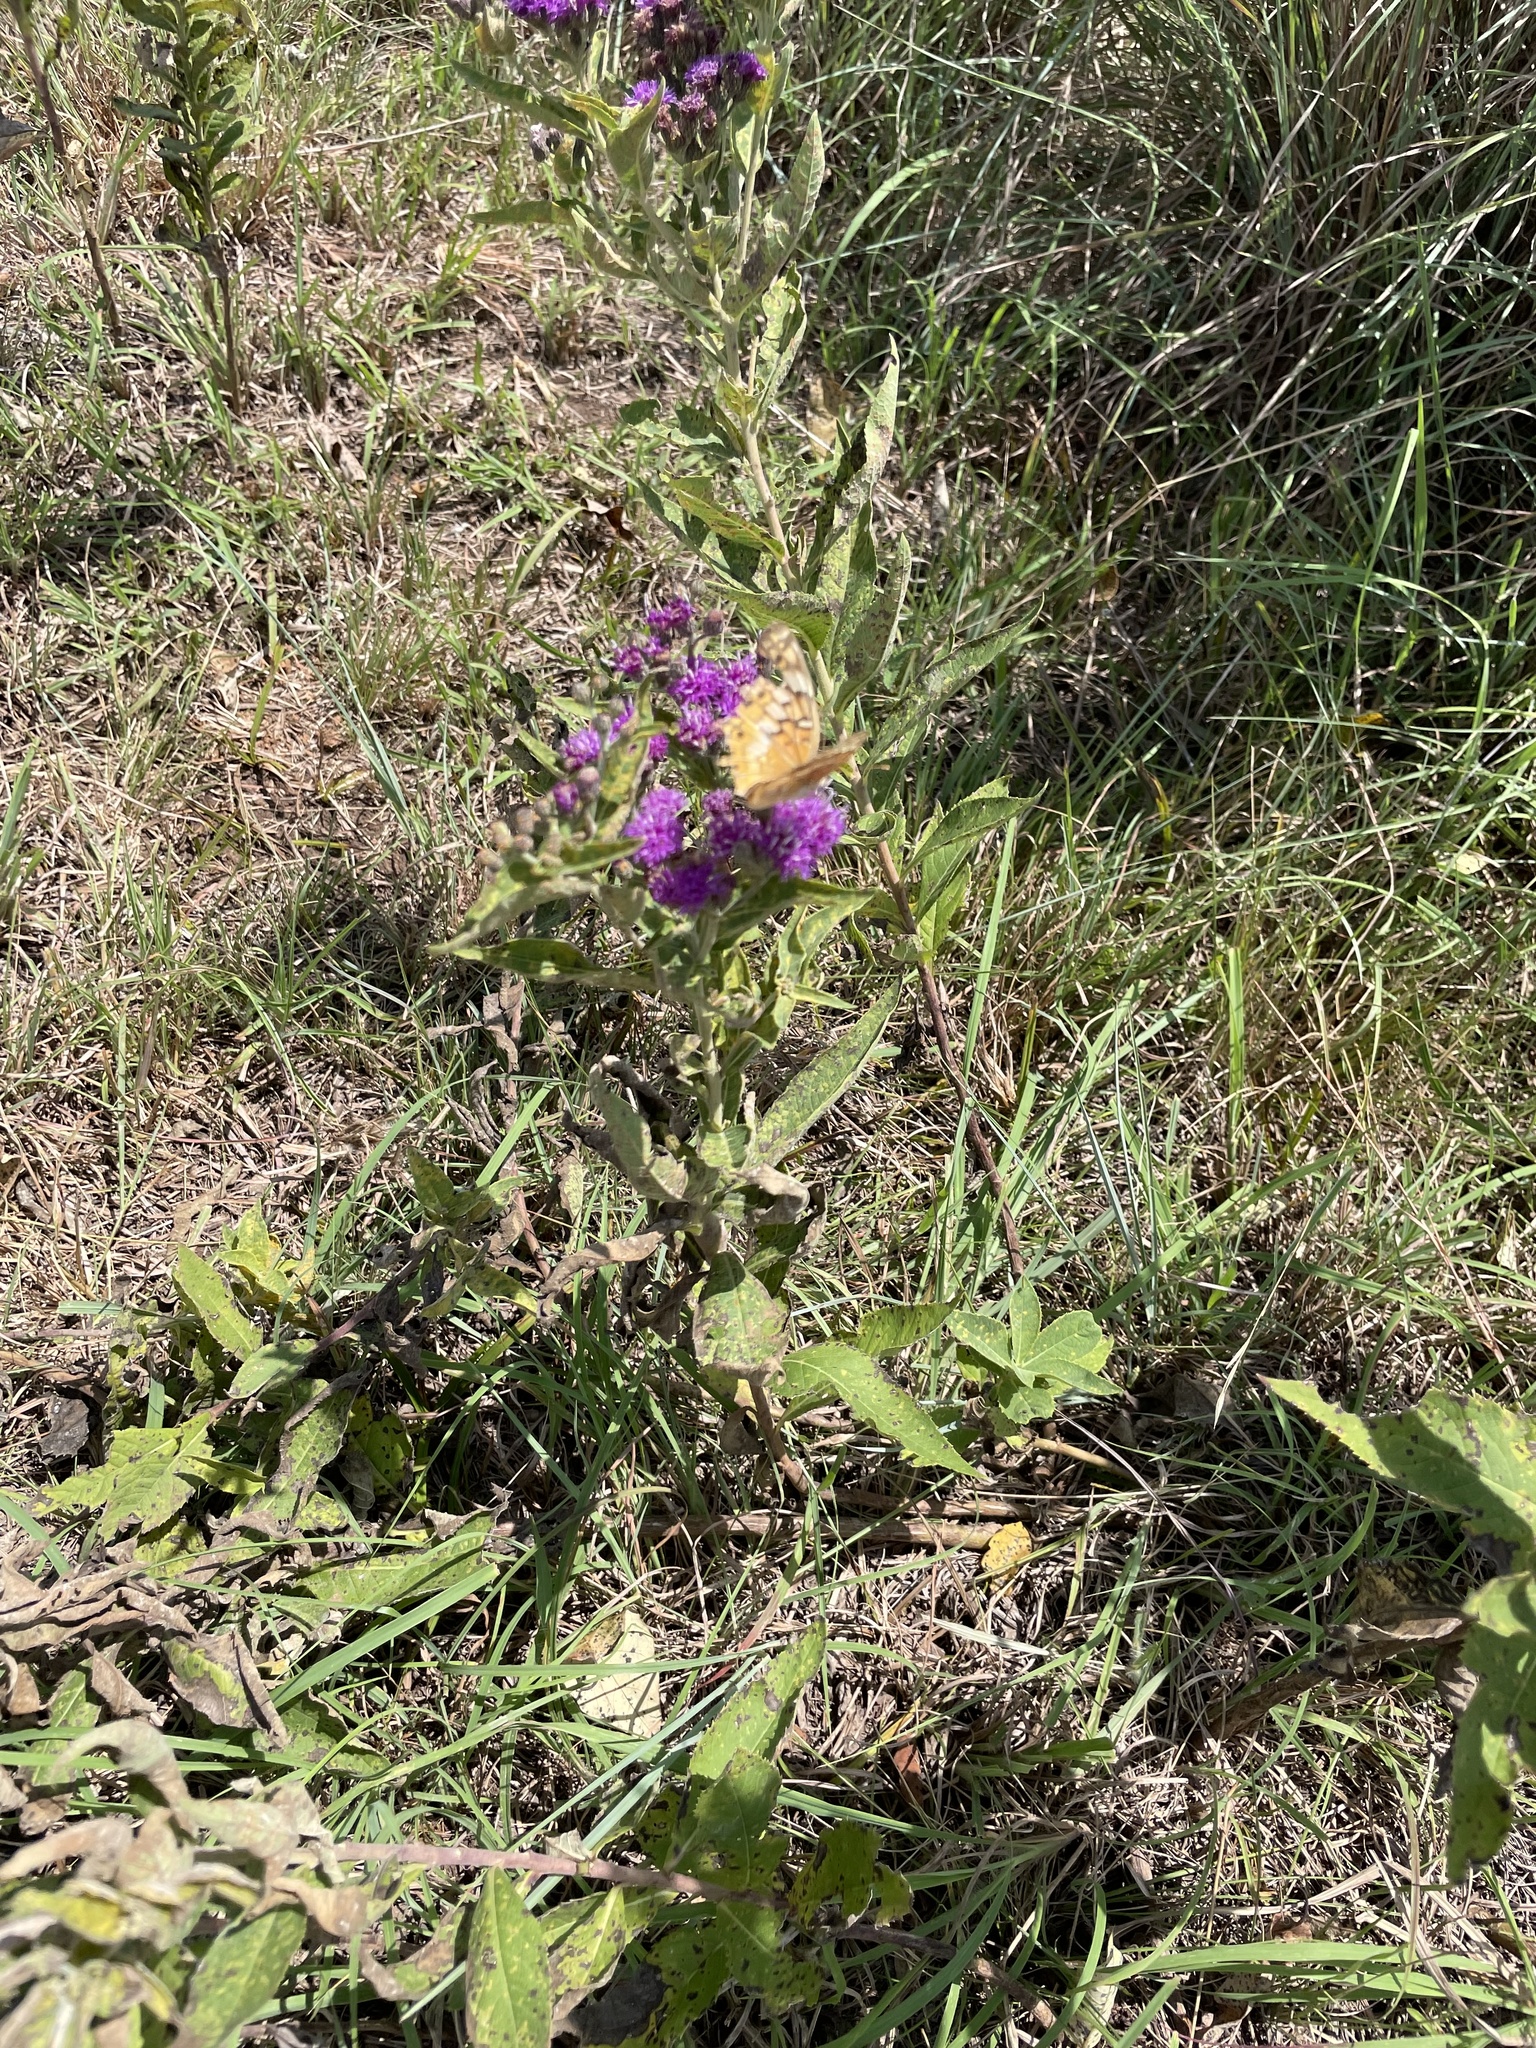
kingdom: Animalia
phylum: Arthropoda
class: Insecta
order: Lepidoptera
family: Nymphalidae
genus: Euptoieta
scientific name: Euptoieta claudia
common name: Variegated fritillary
